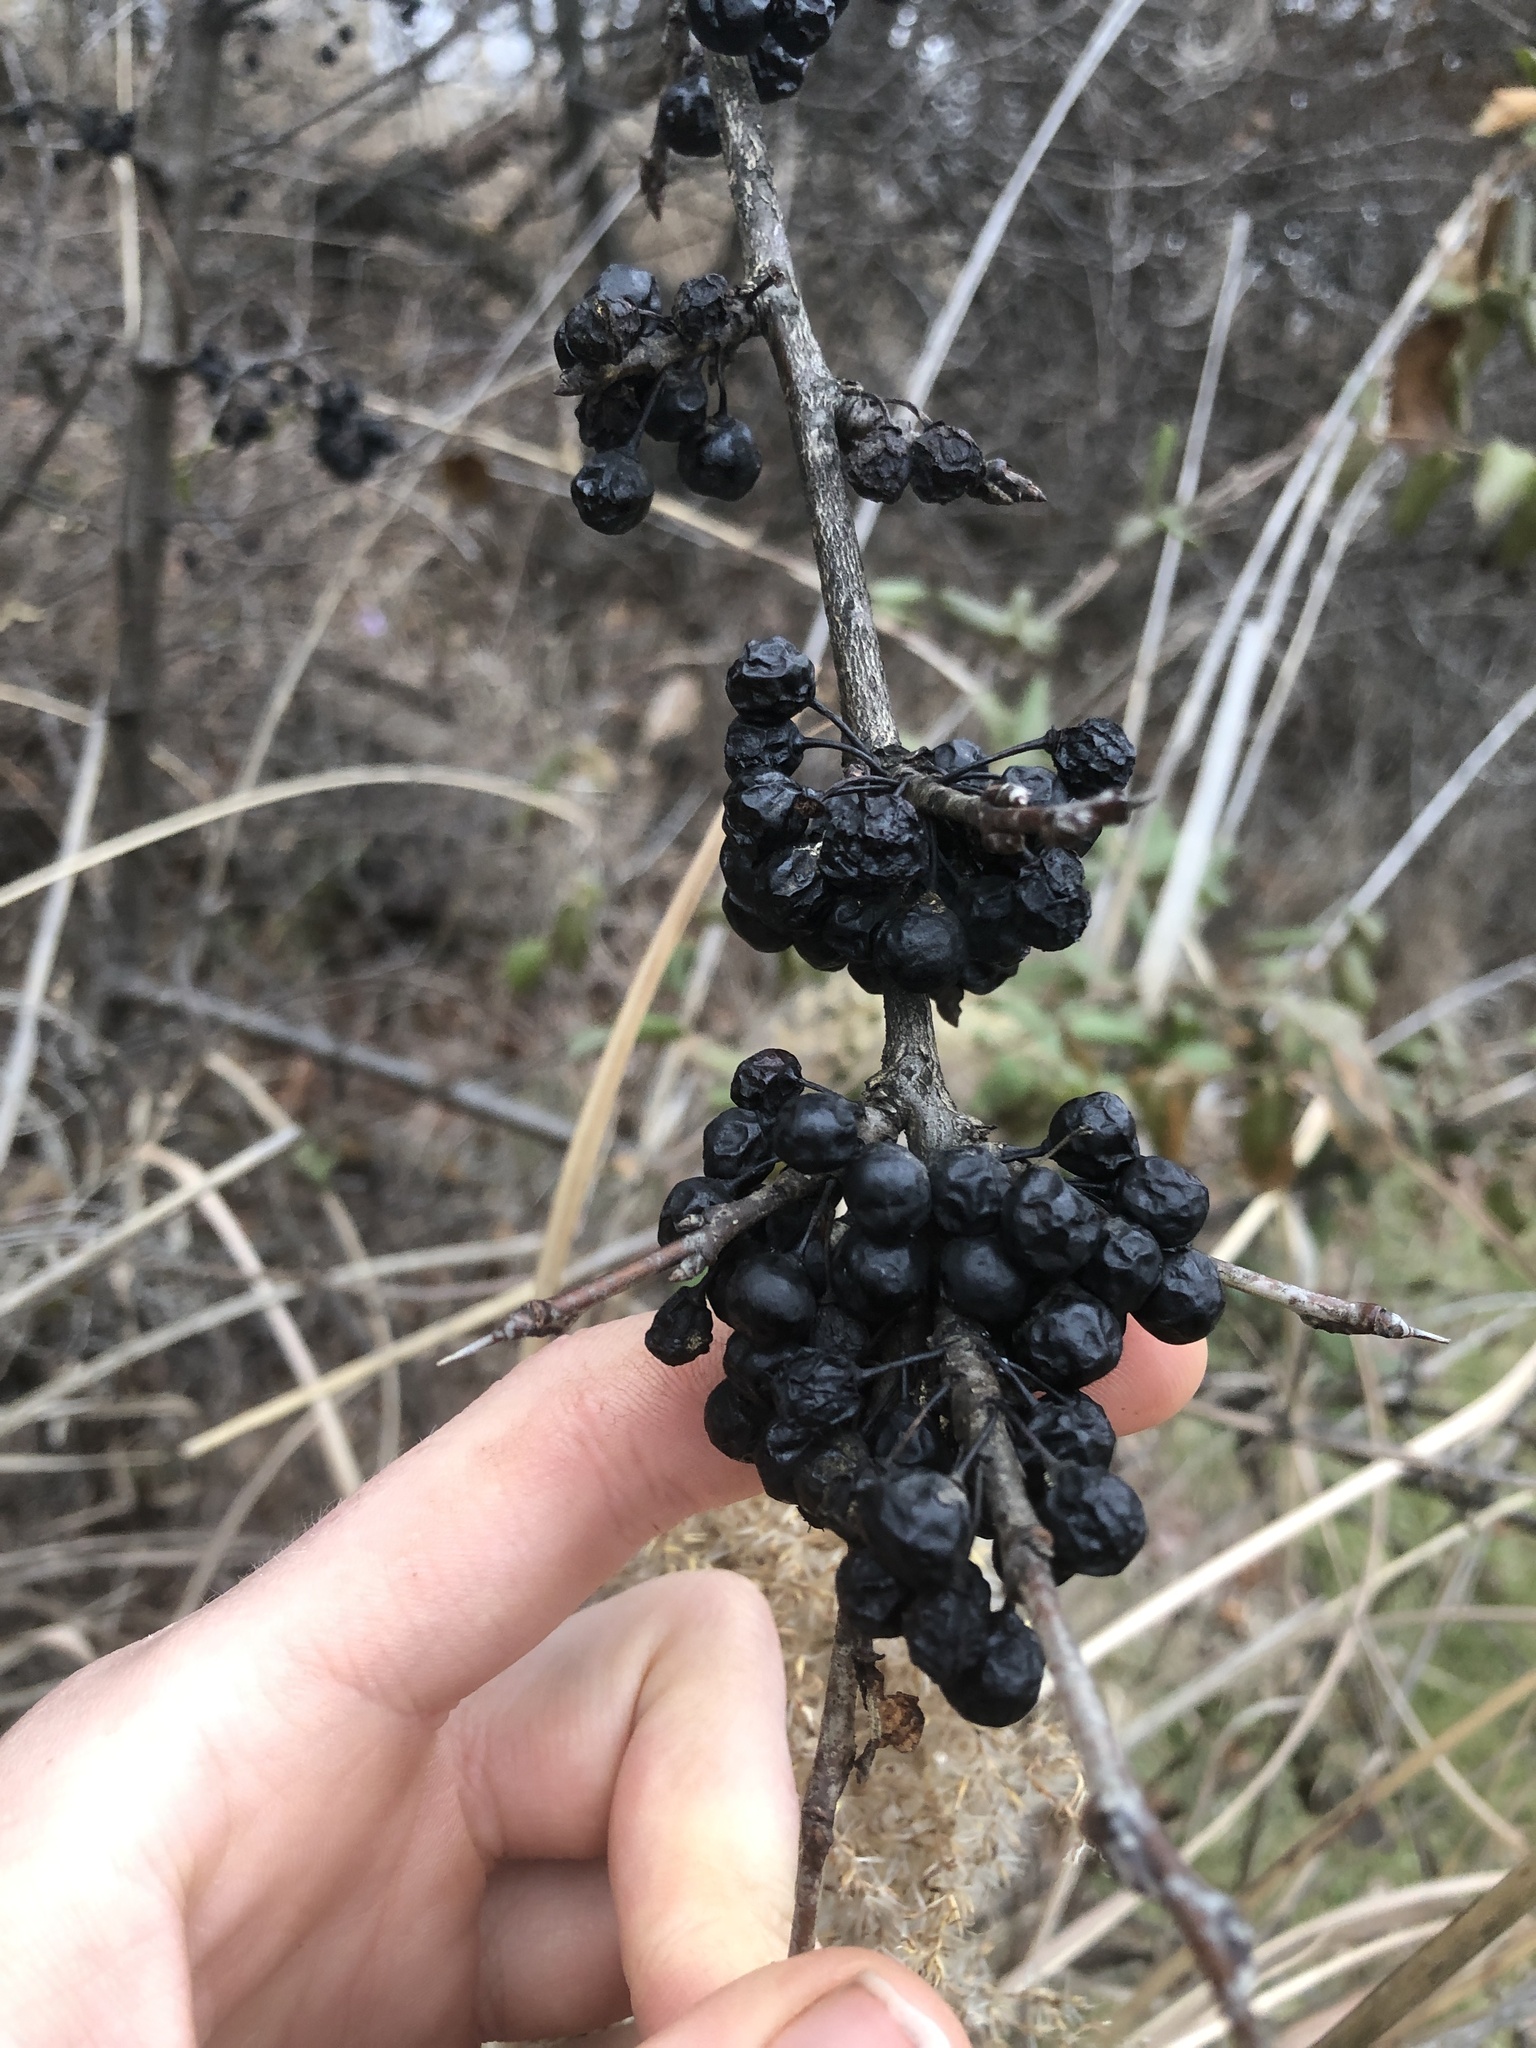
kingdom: Plantae
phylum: Tracheophyta
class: Magnoliopsida
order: Rosales
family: Rhamnaceae
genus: Rhamnus
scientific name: Rhamnus cathartica
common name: Common buckthorn
